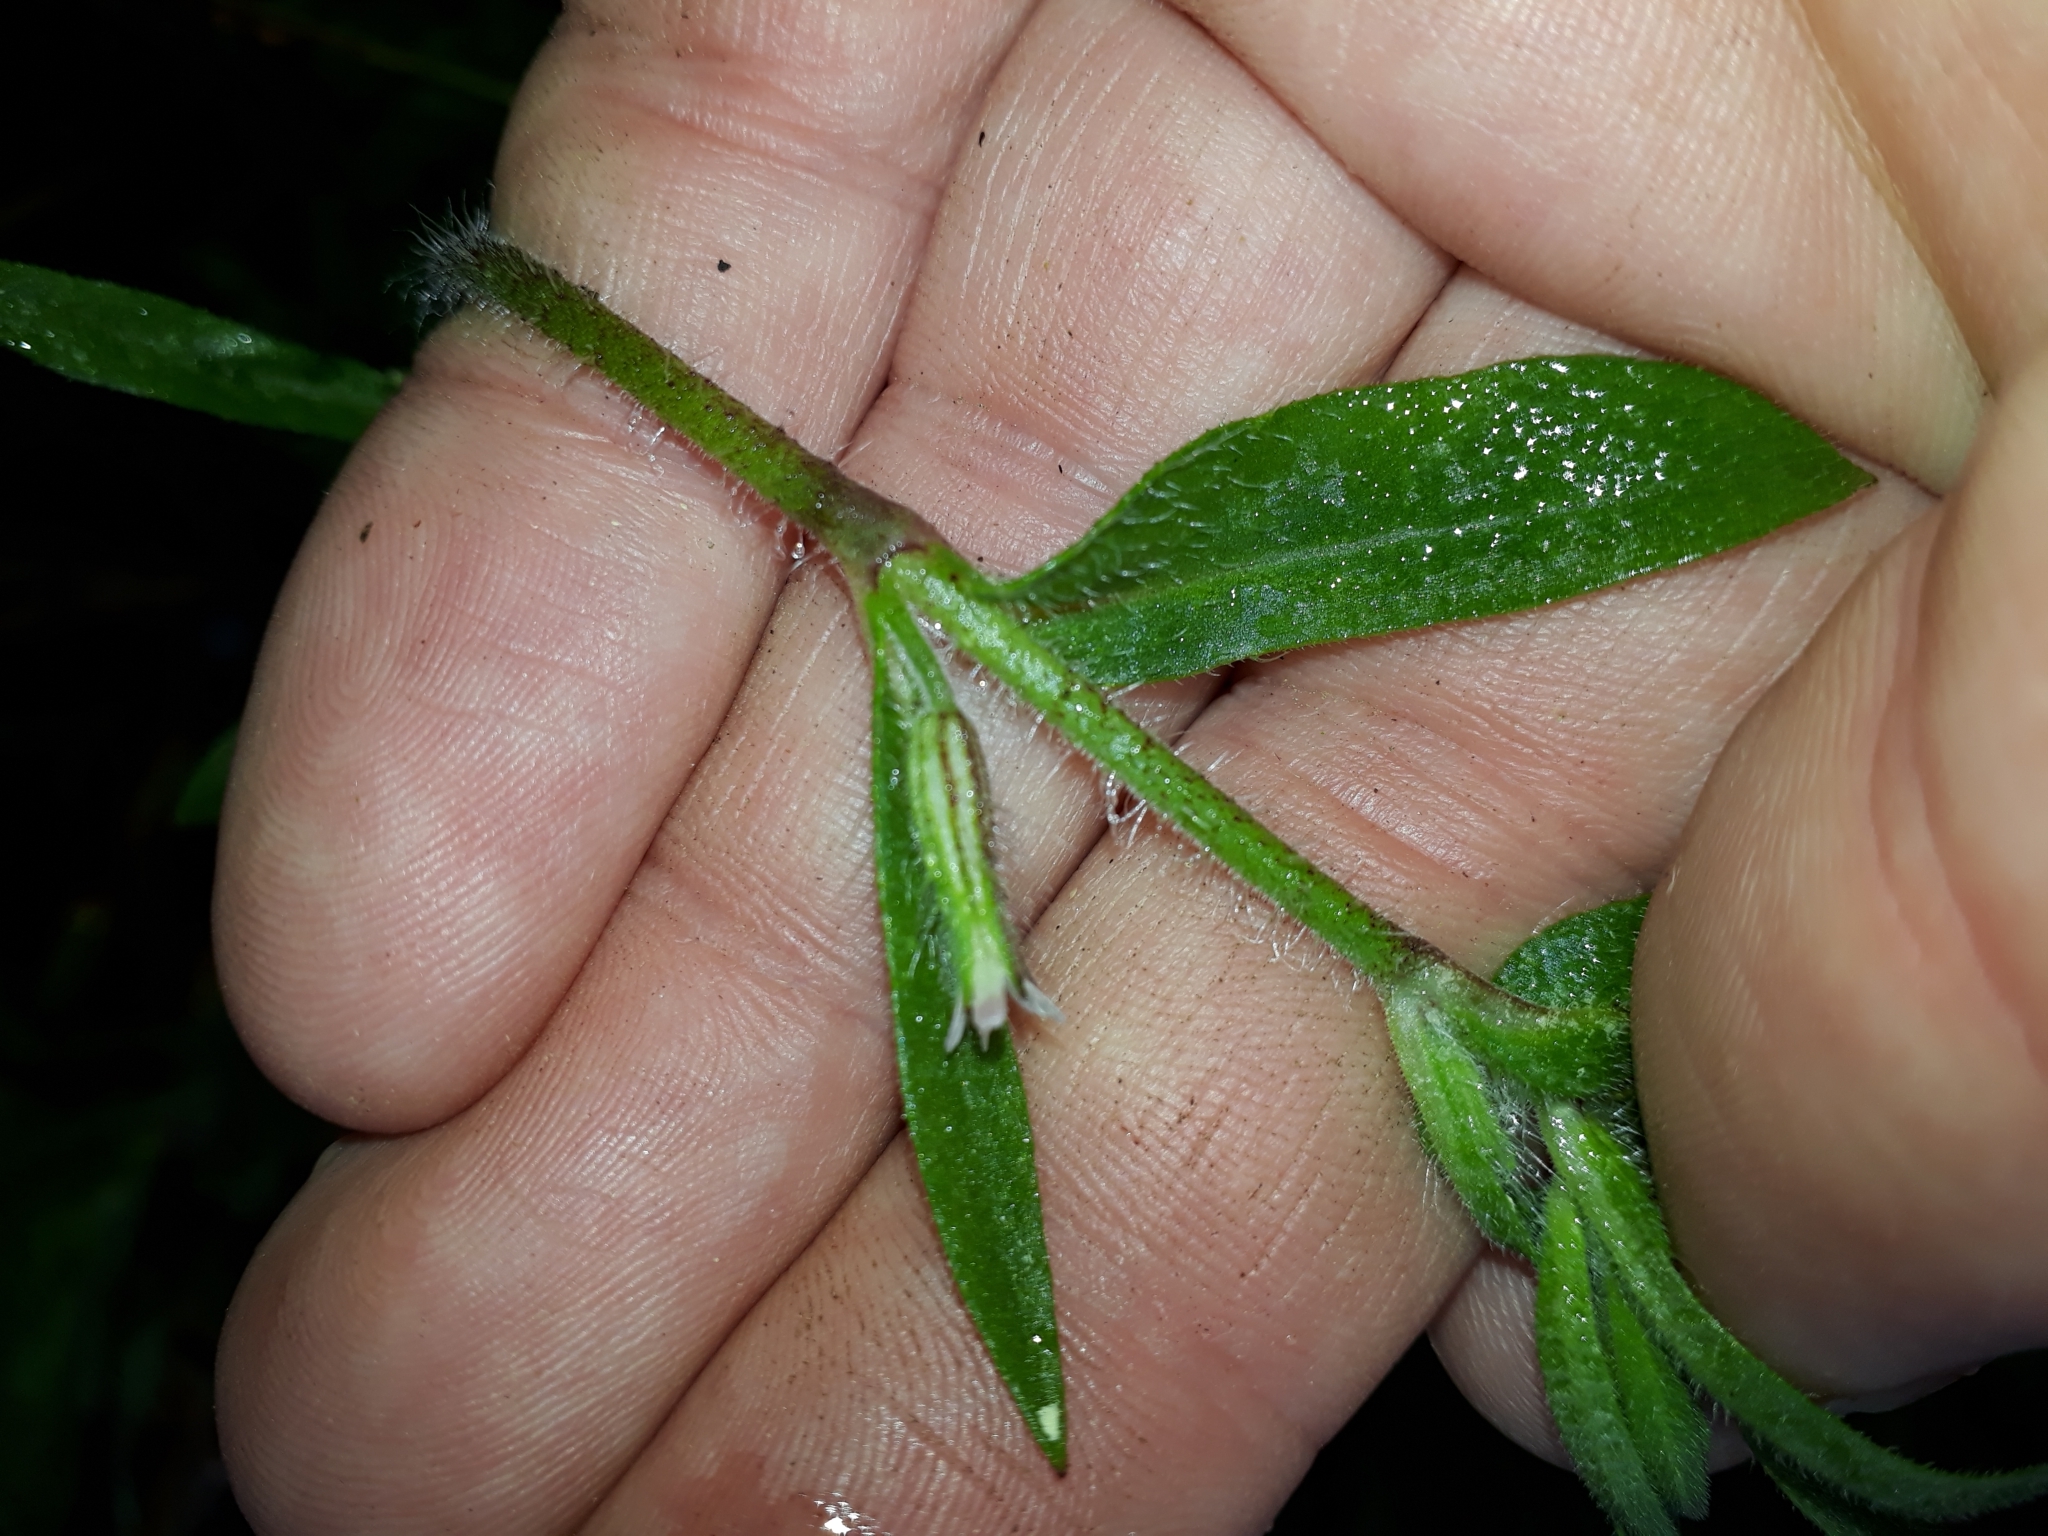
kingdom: Plantae
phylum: Tracheophyta
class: Magnoliopsida
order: Caryophyllales
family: Caryophyllaceae
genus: Silene
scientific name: Silene gallica
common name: Small-flowered catchfly
